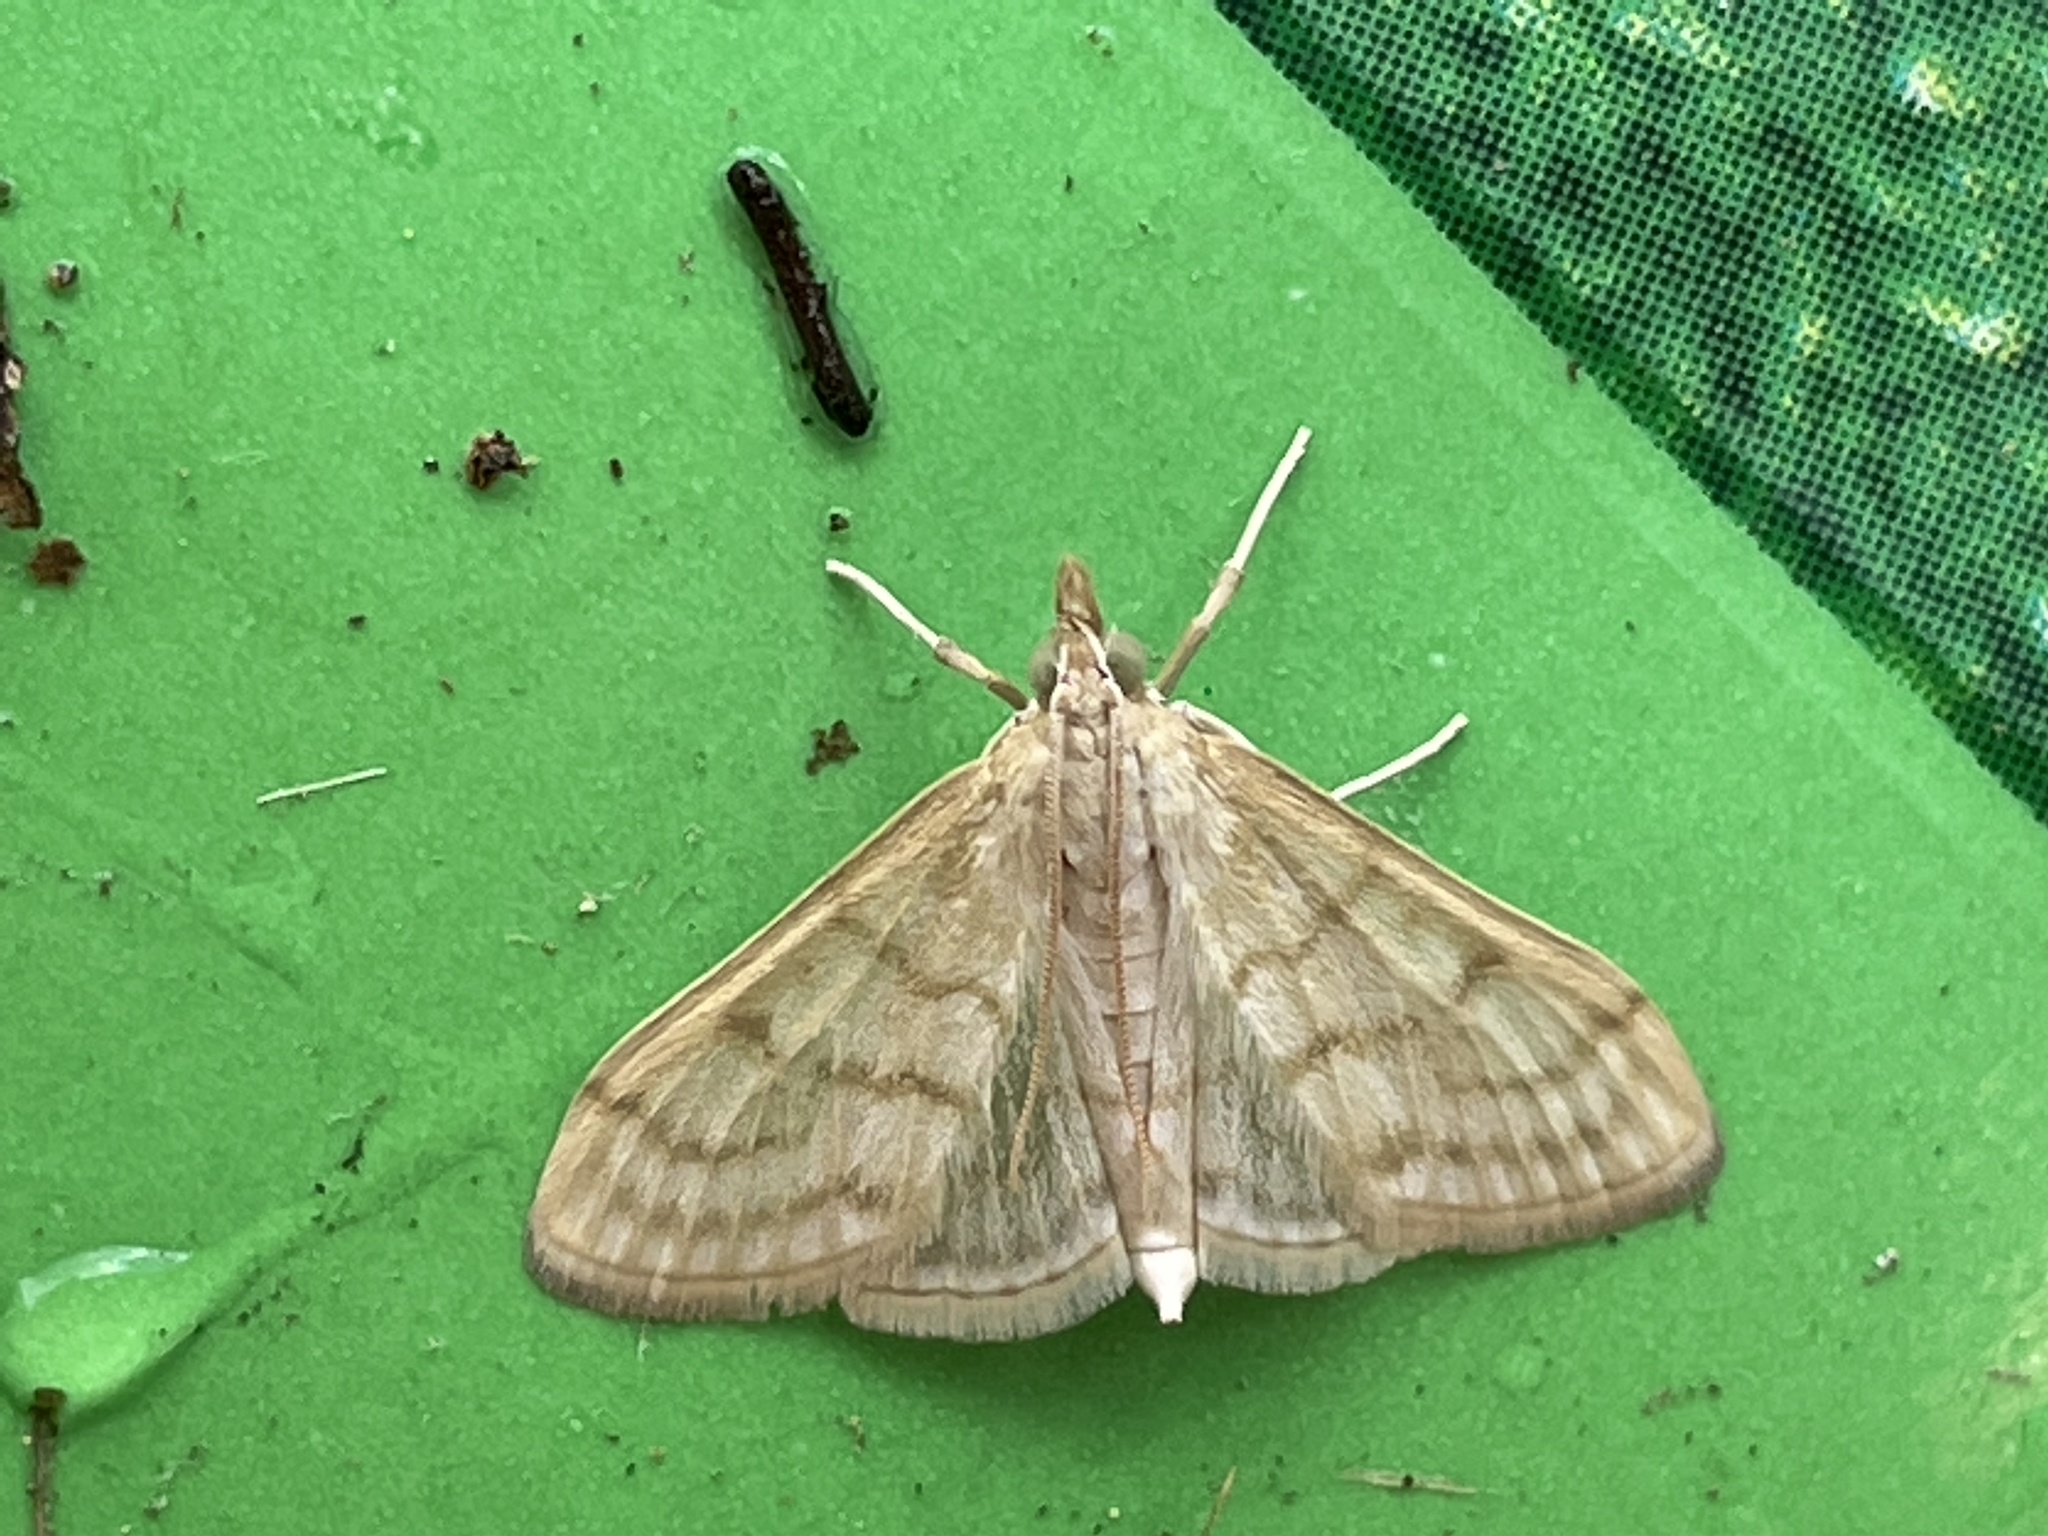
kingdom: Animalia
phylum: Arthropoda
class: Insecta
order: Lepidoptera
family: Crambidae
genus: Paracorsia
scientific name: Paracorsia repandalis
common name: Mullein moth
